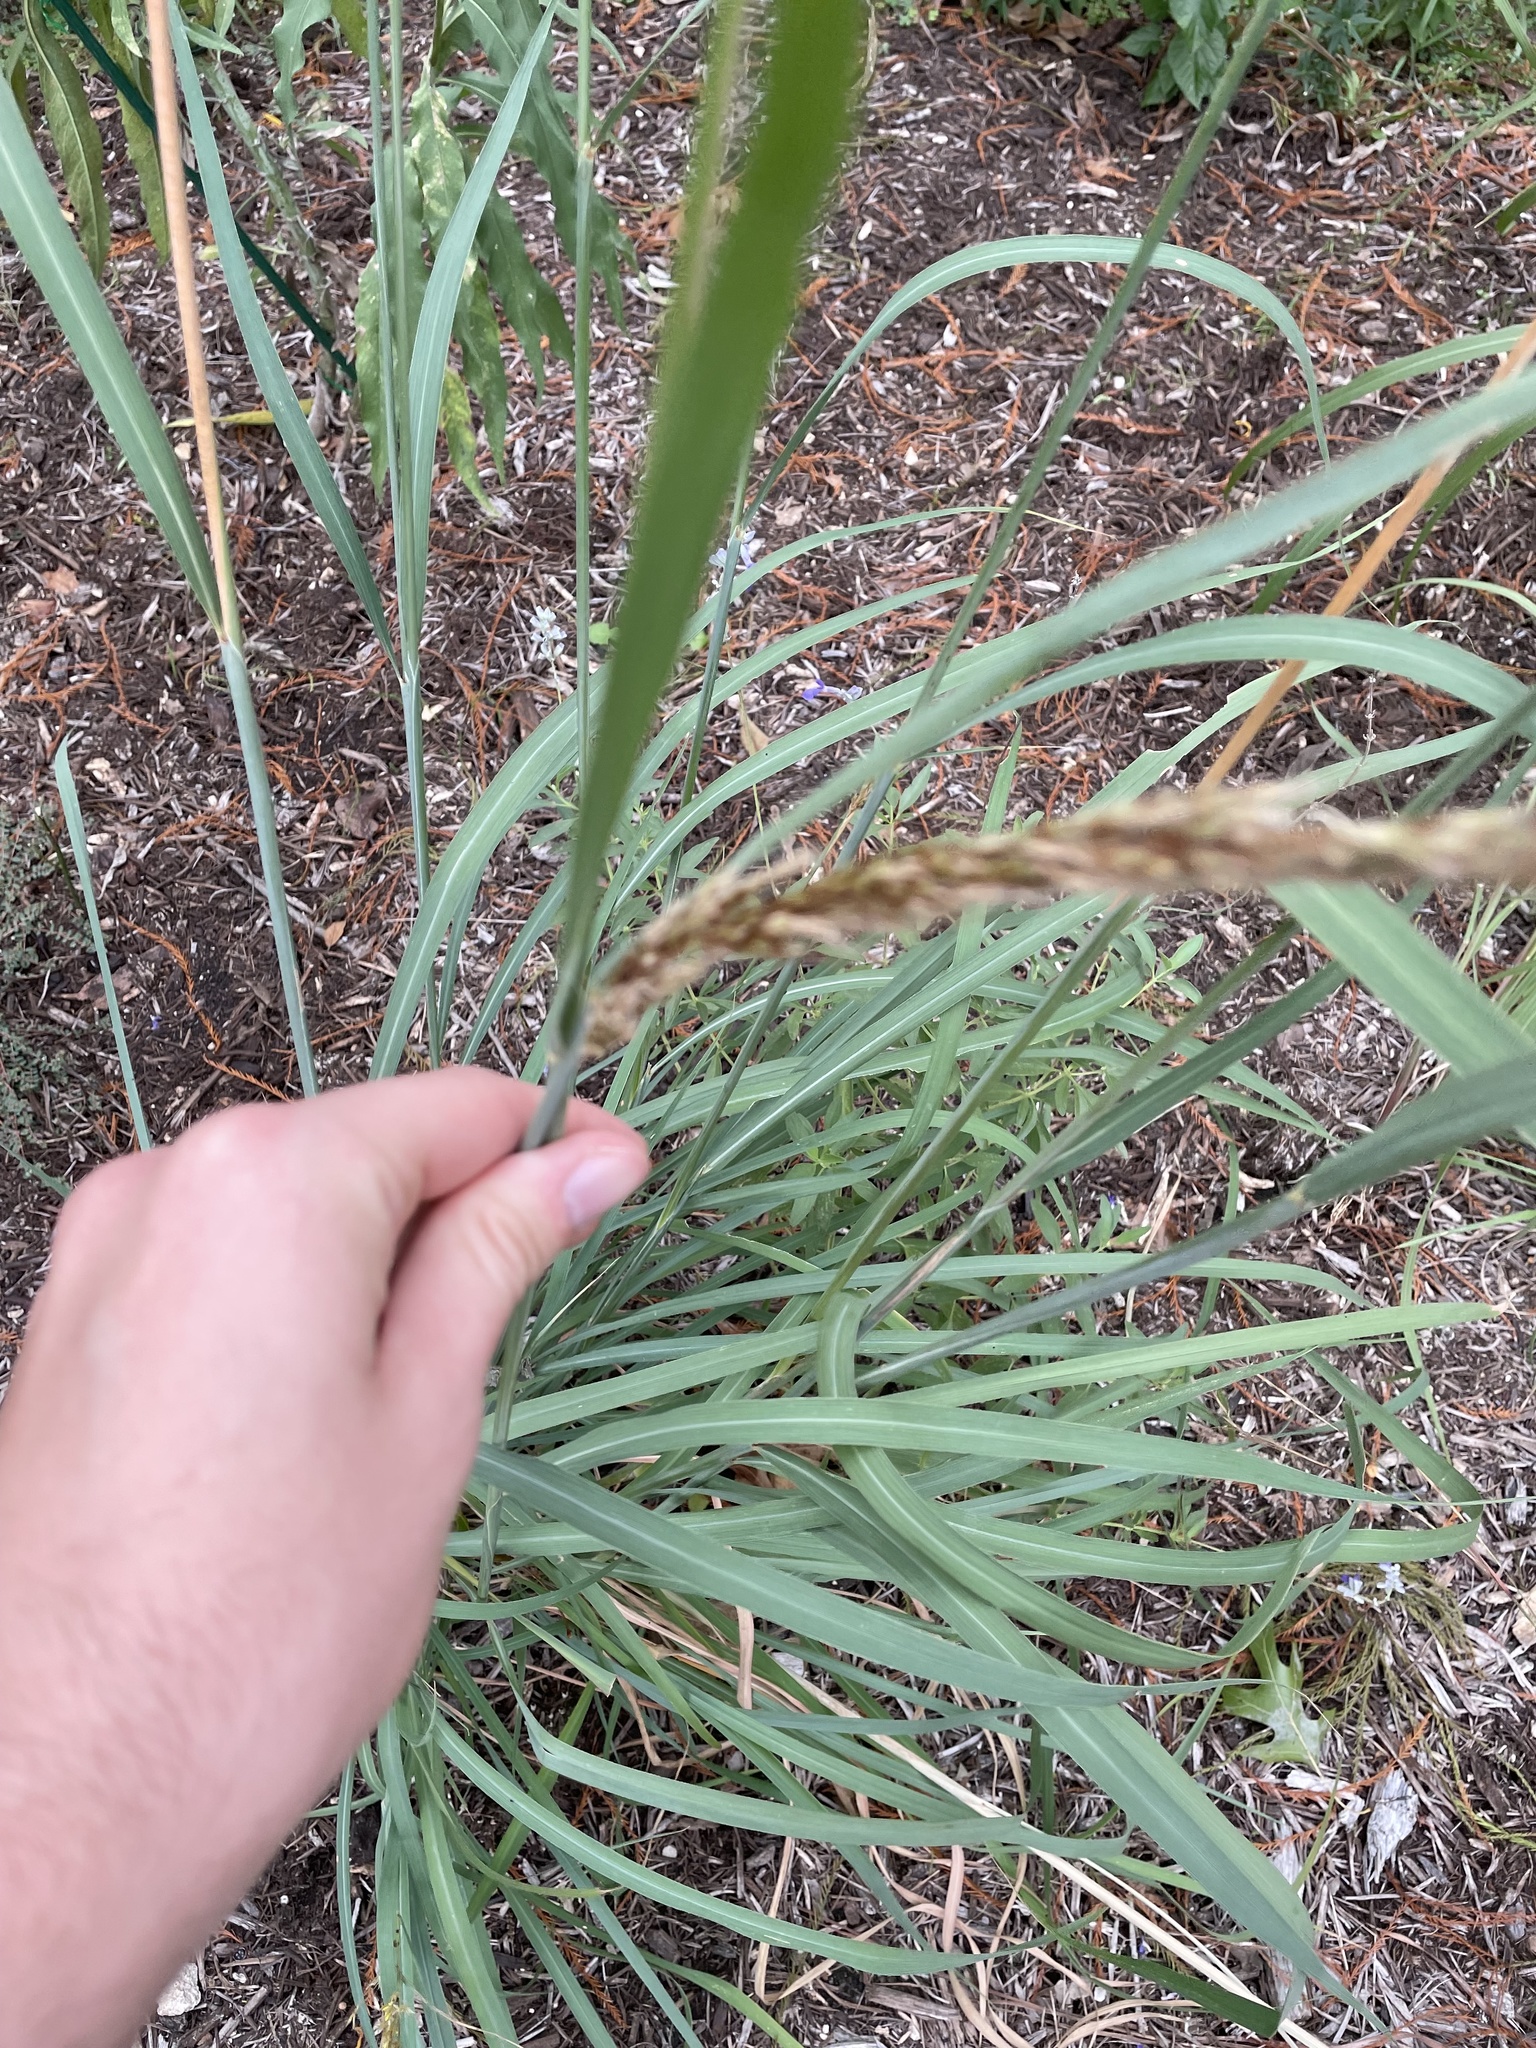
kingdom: Plantae
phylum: Tracheophyta
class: Liliopsida
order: Poales
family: Poaceae
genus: Sorghastrum
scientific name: Sorghastrum nutans
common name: Indian grass
